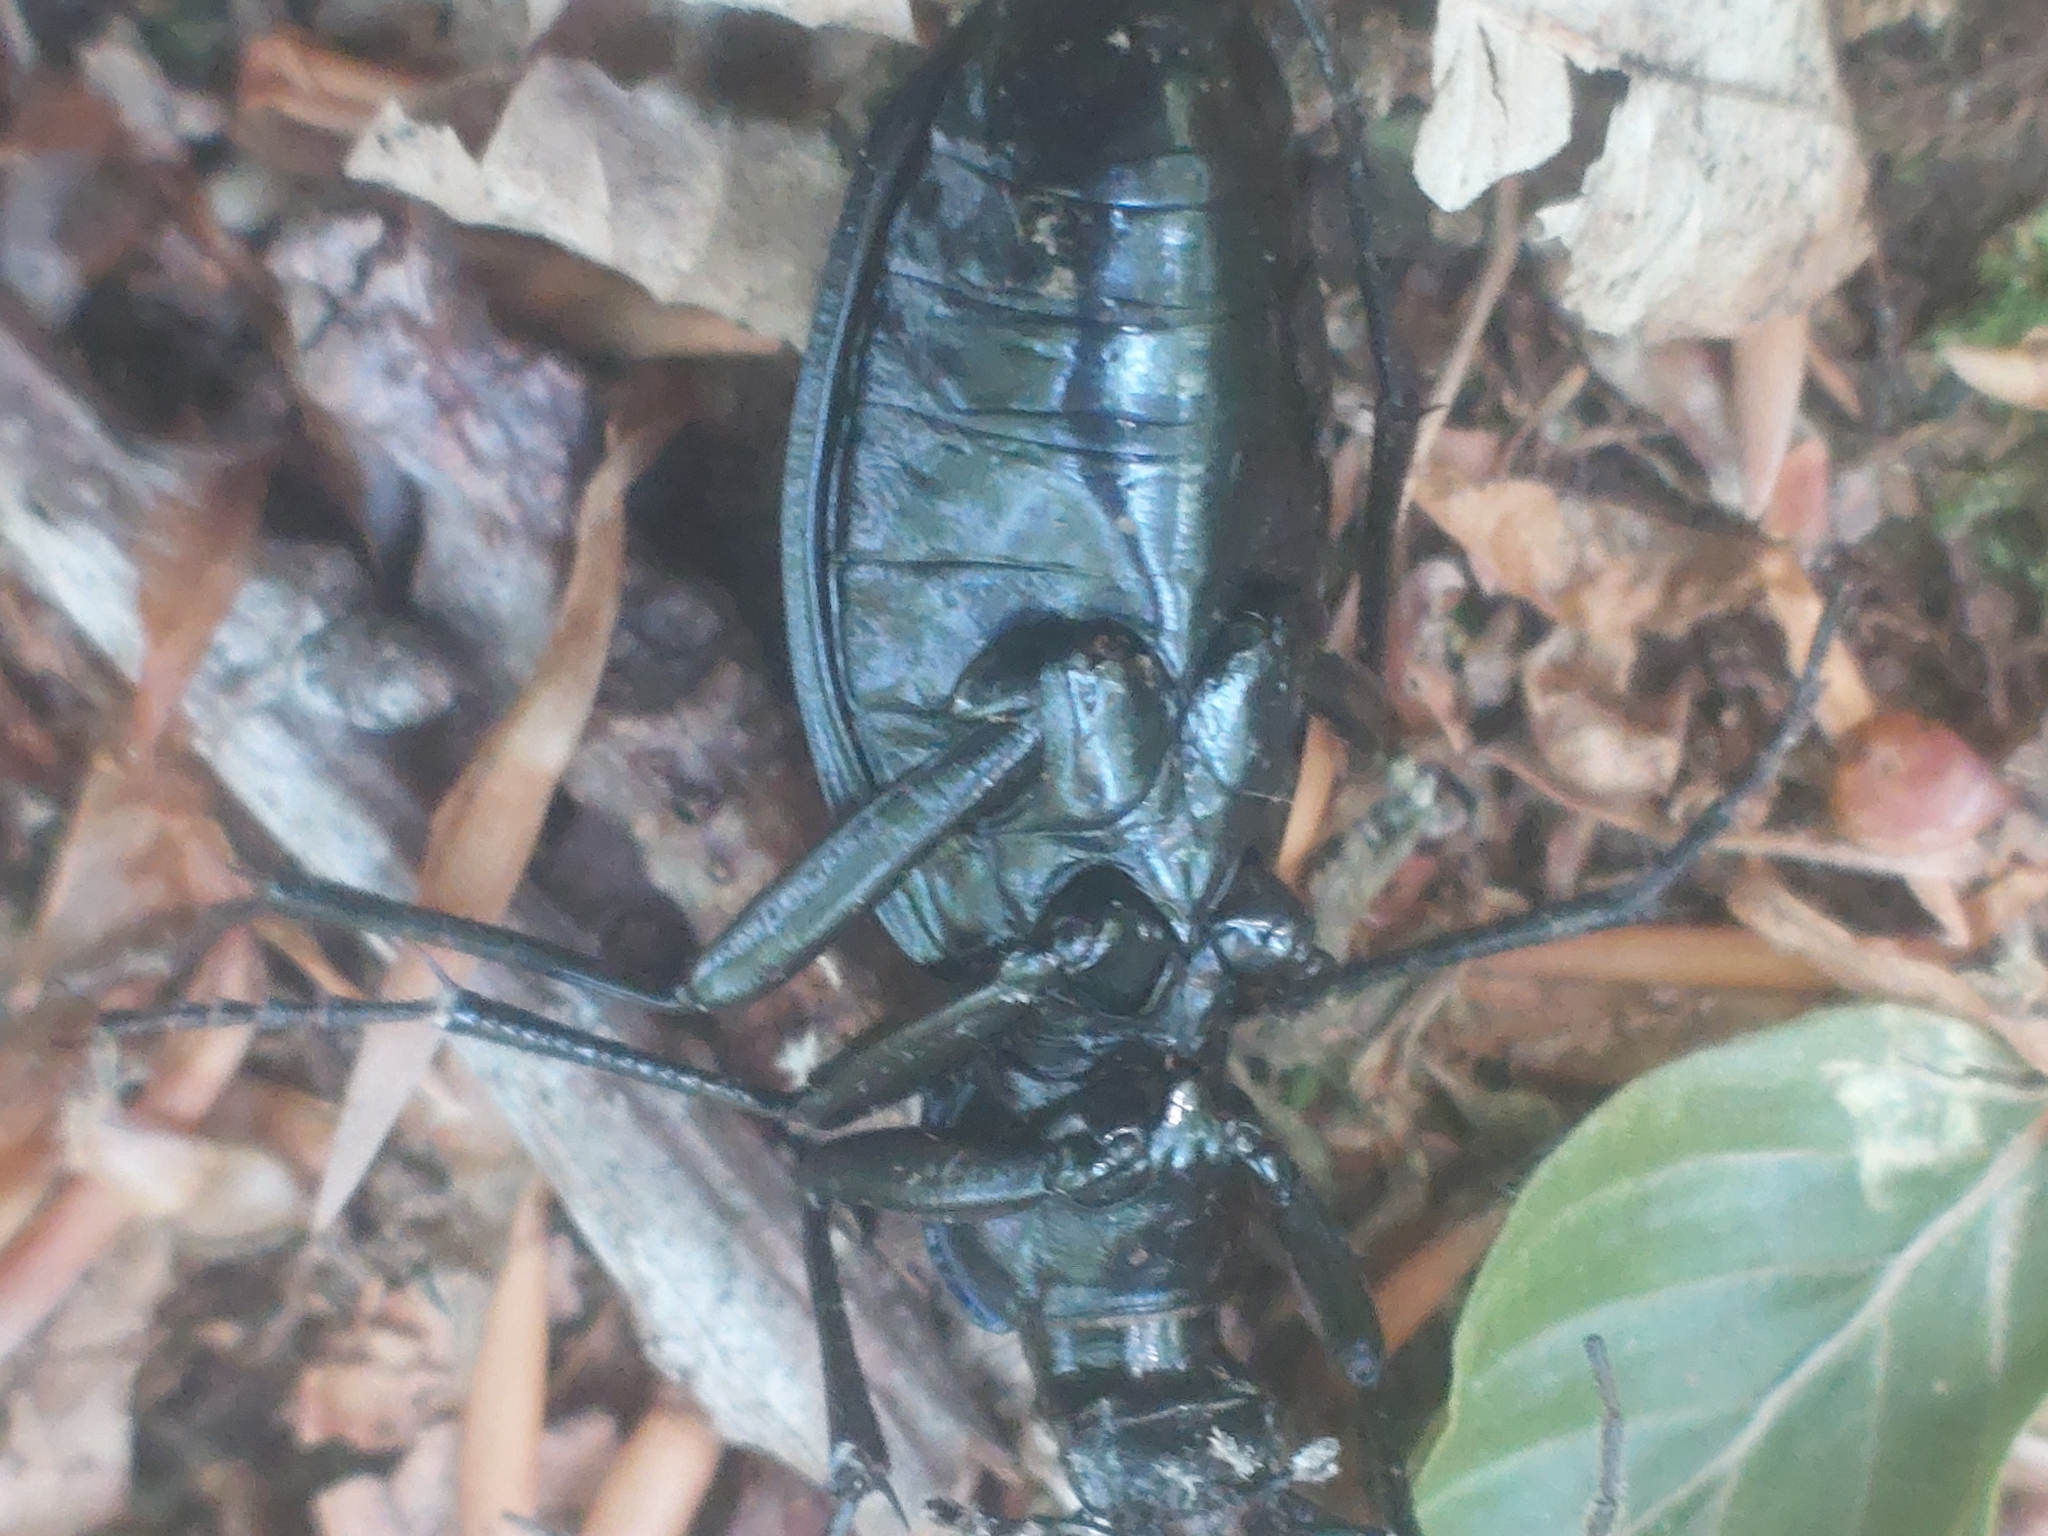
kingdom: Animalia
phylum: Arthropoda
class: Insecta
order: Coleoptera
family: Carabidae
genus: Carabus
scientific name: Carabus intricatus
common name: Blue ground beetle
